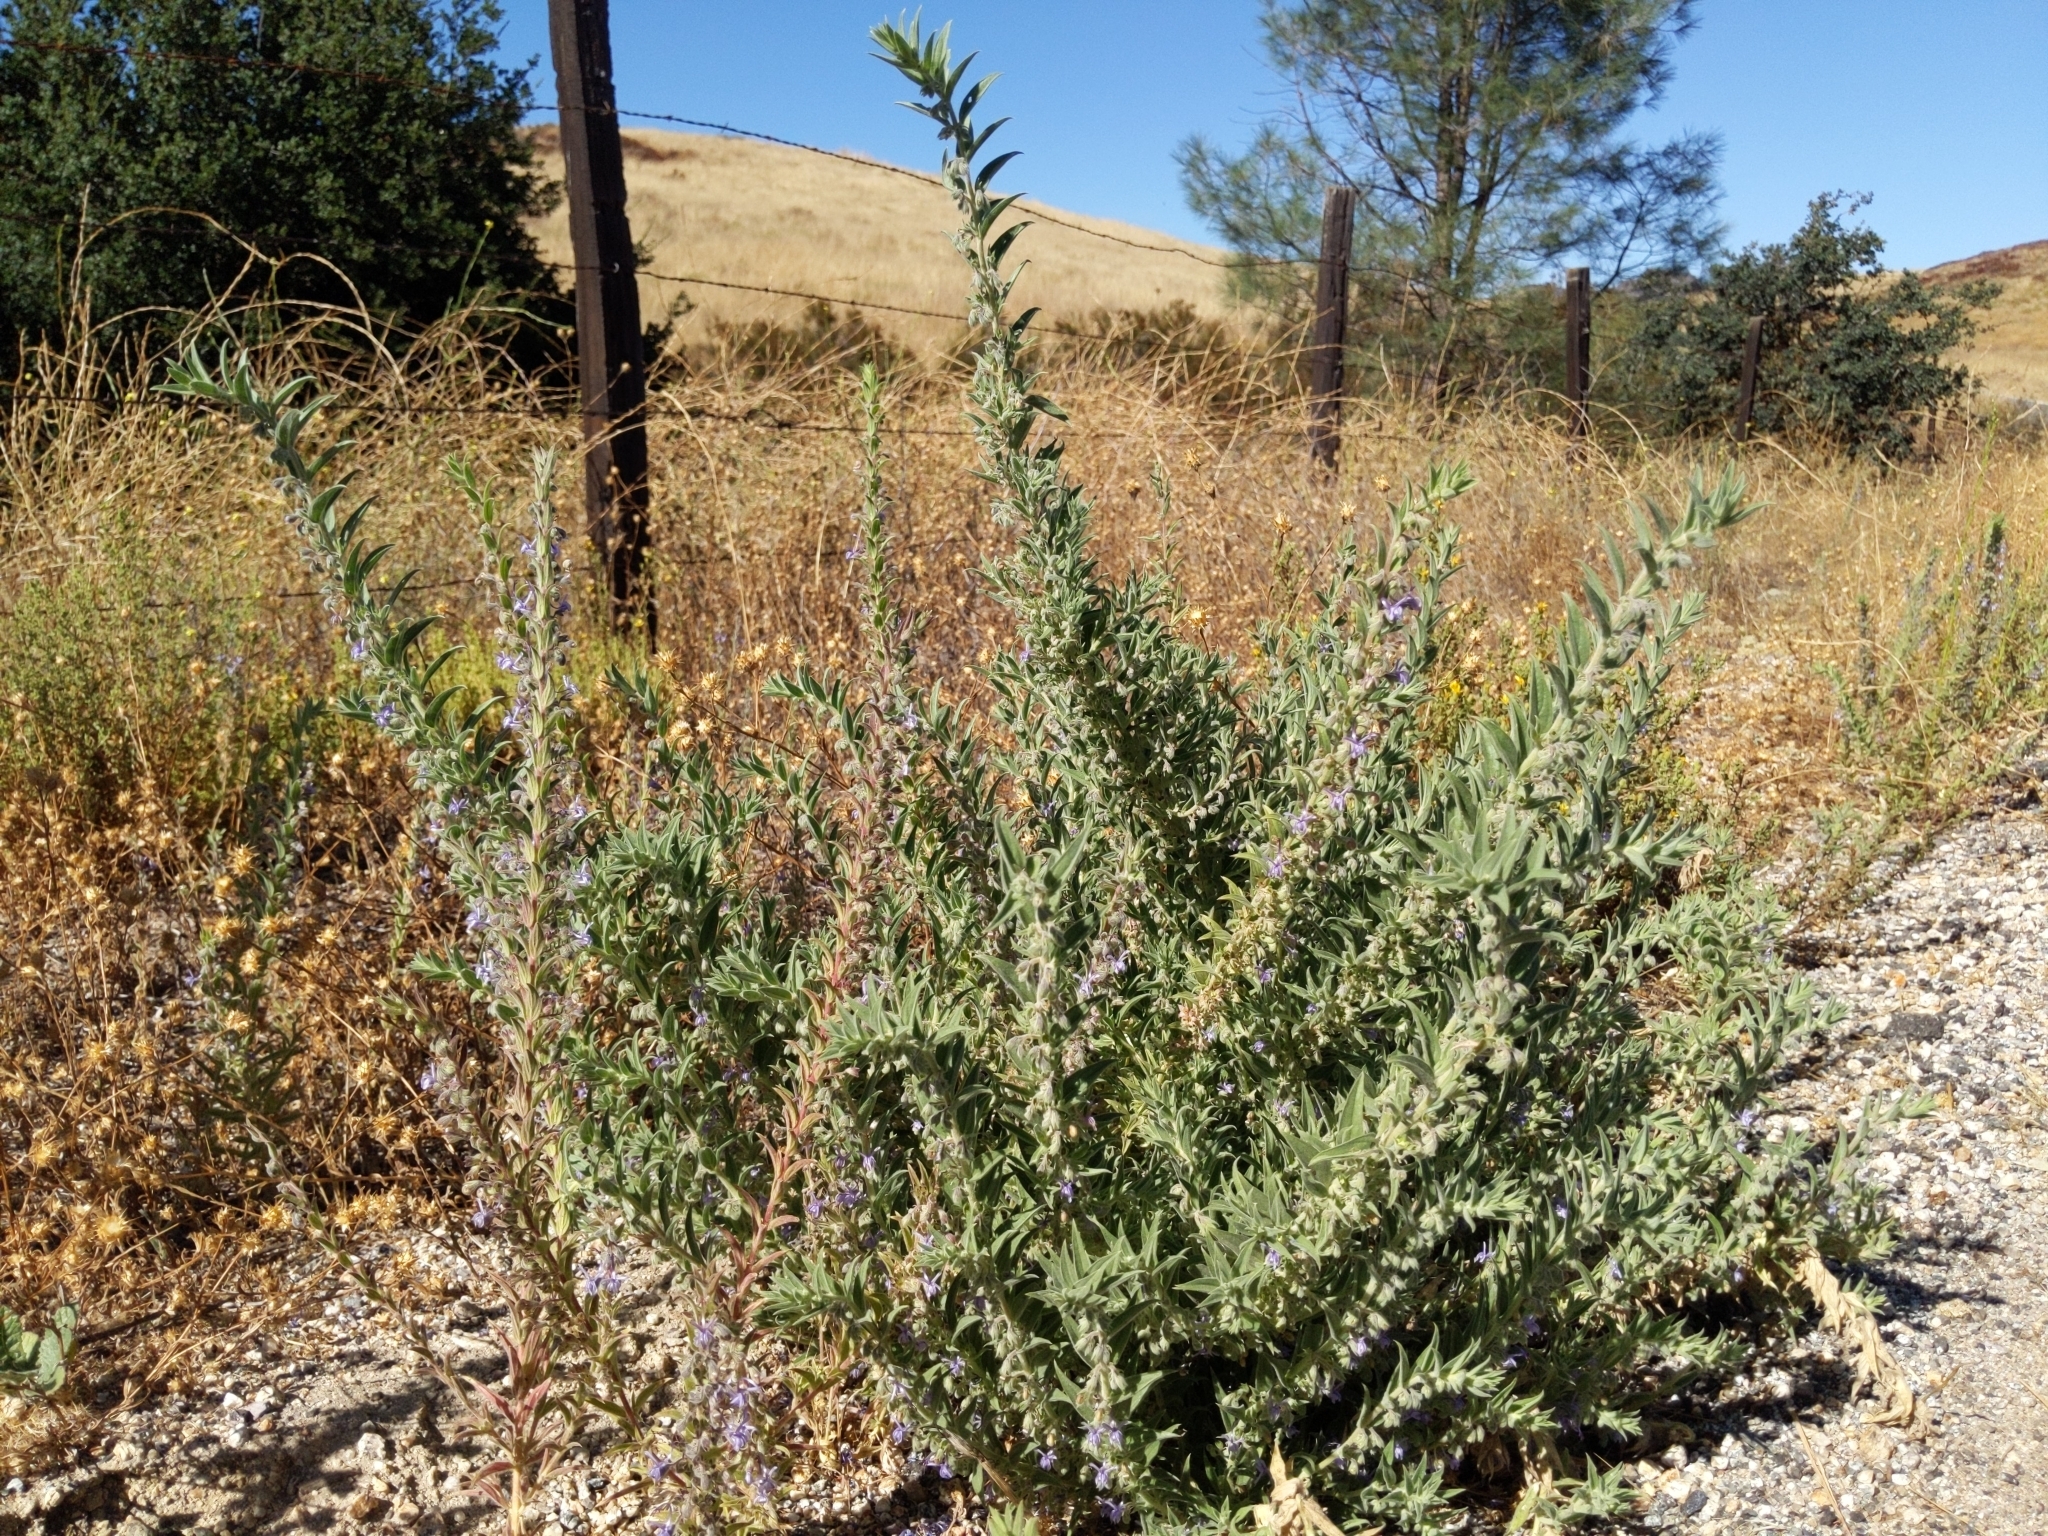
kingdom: Plantae
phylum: Tracheophyta
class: Magnoliopsida
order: Lamiales
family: Lamiaceae
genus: Trichostema
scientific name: Trichostema lanceolatum
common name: Vinegar-weed
